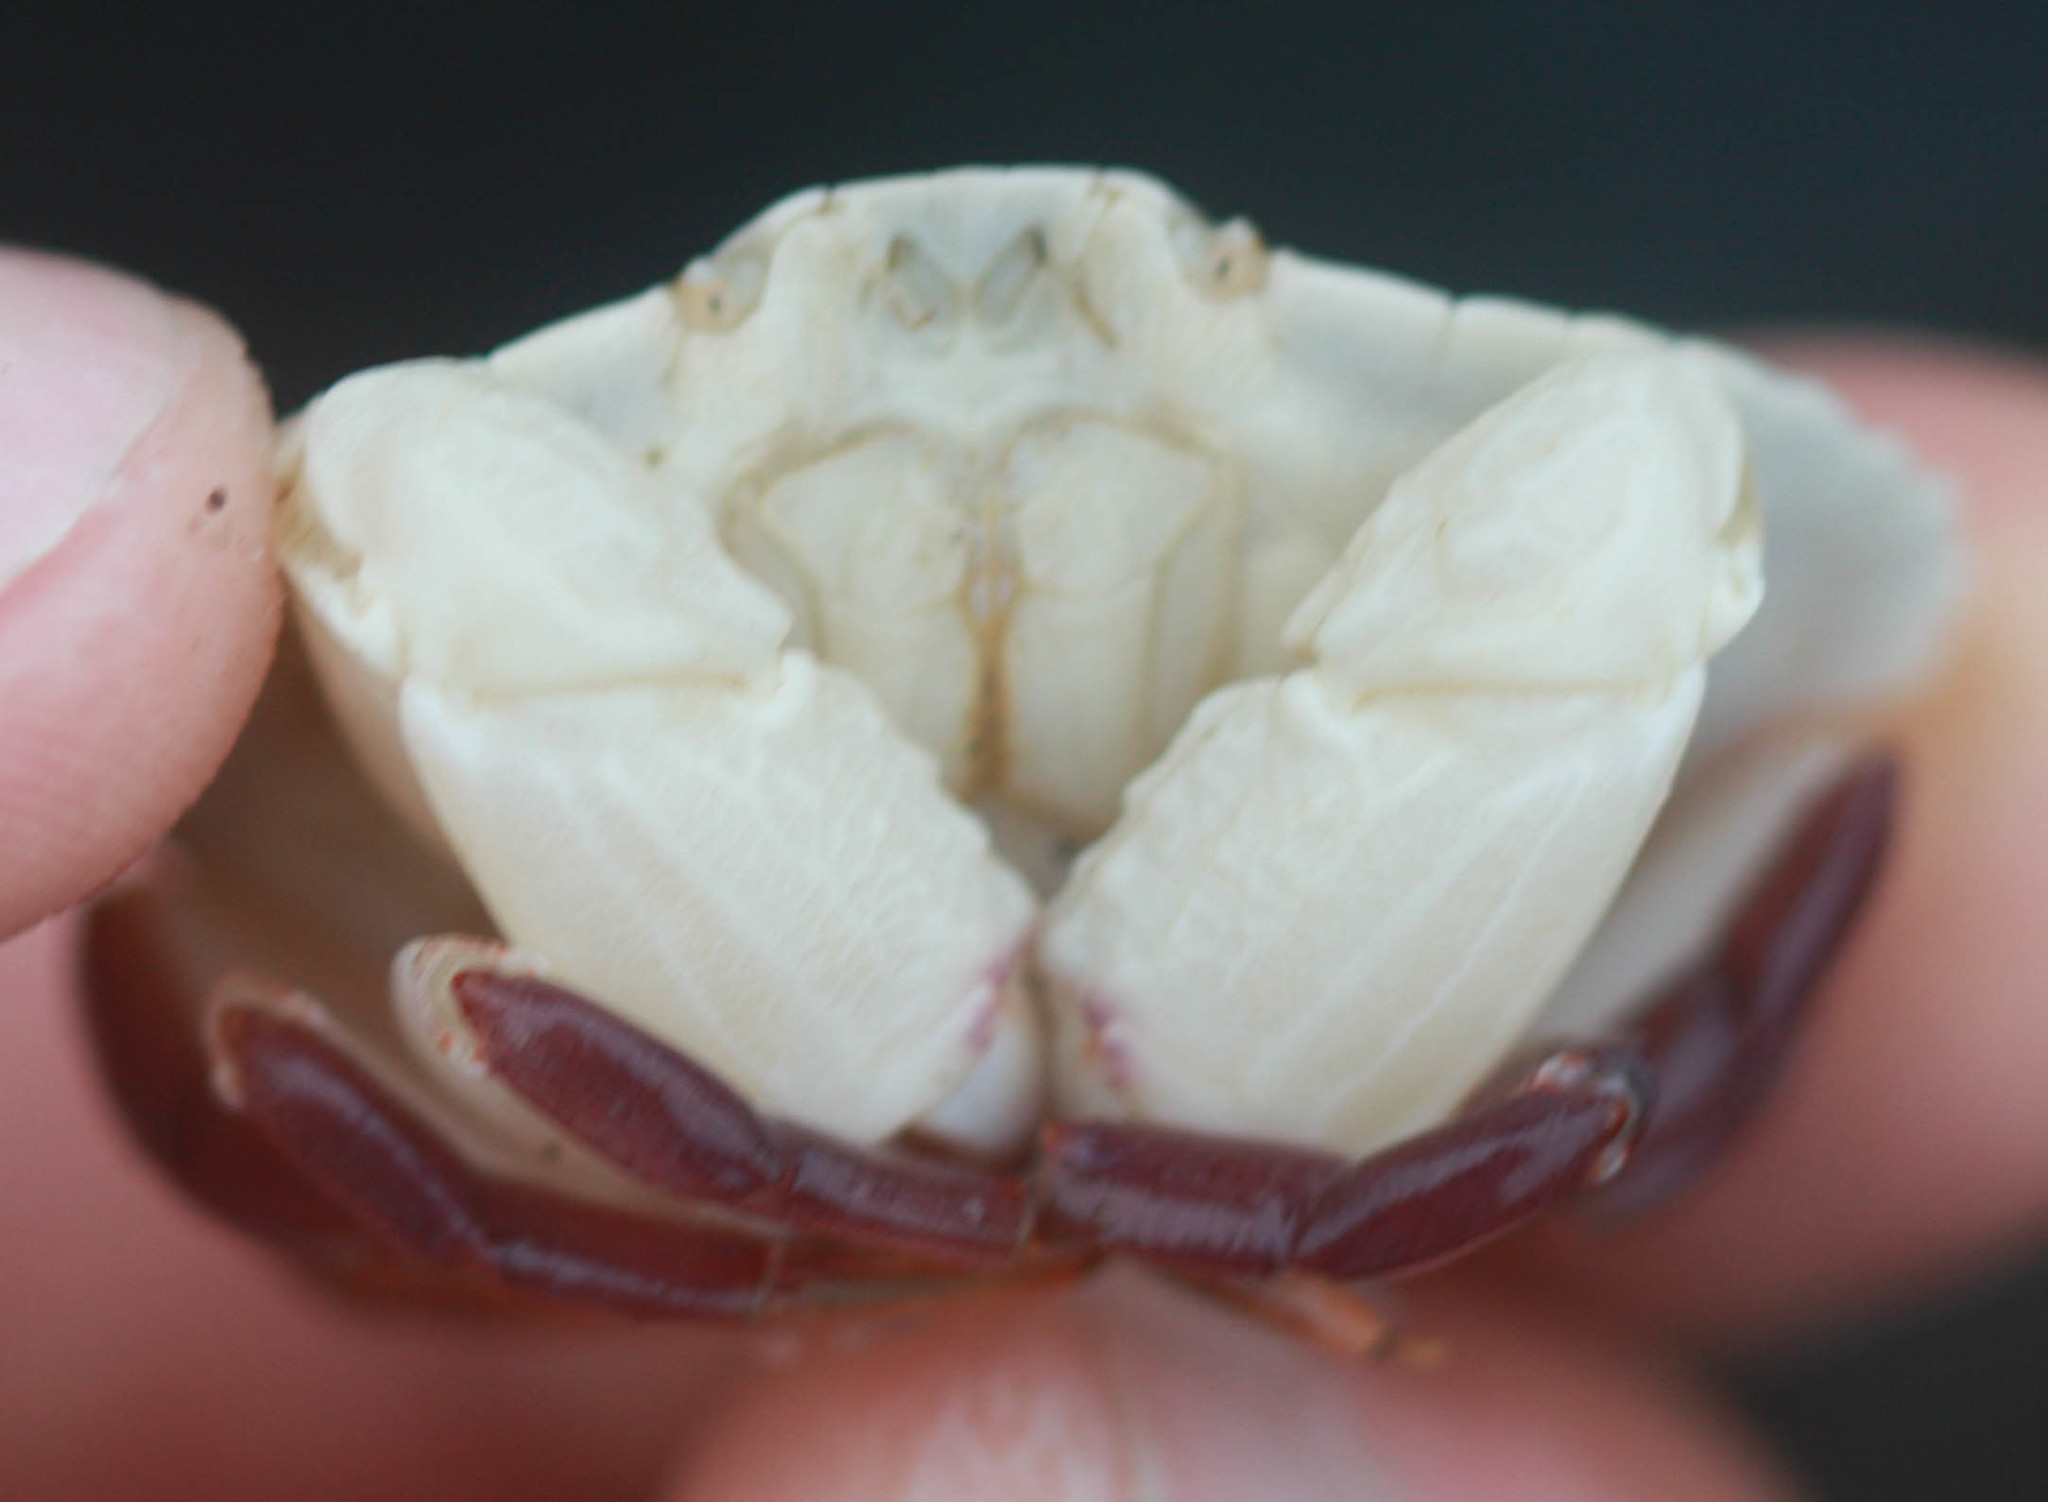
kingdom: Animalia
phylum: Arthropoda
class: Malacostraca
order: Decapoda
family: Cancridae
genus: Cancer
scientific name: Cancer productus
